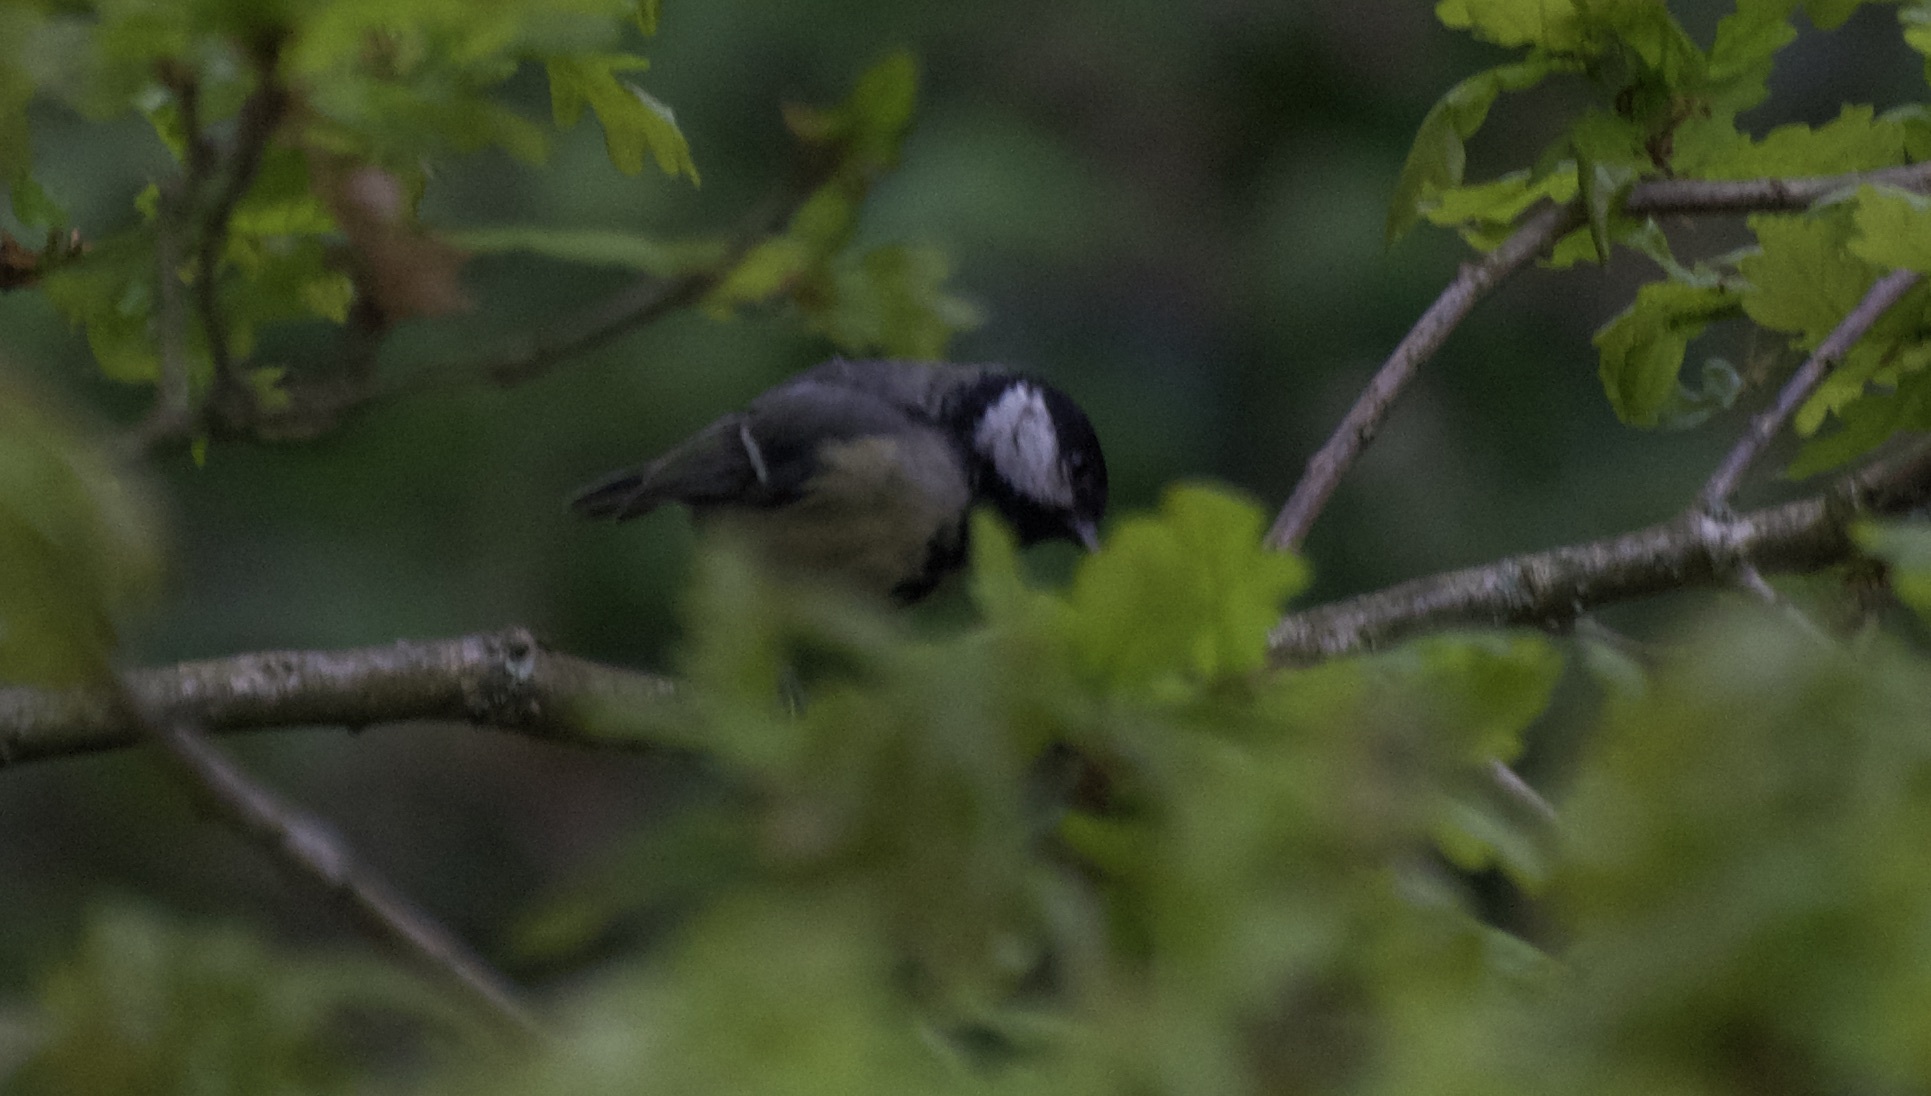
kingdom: Animalia
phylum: Chordata
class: Aves
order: Passeriformes
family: Paridae
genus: Parus
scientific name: Parus major
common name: Great tit
